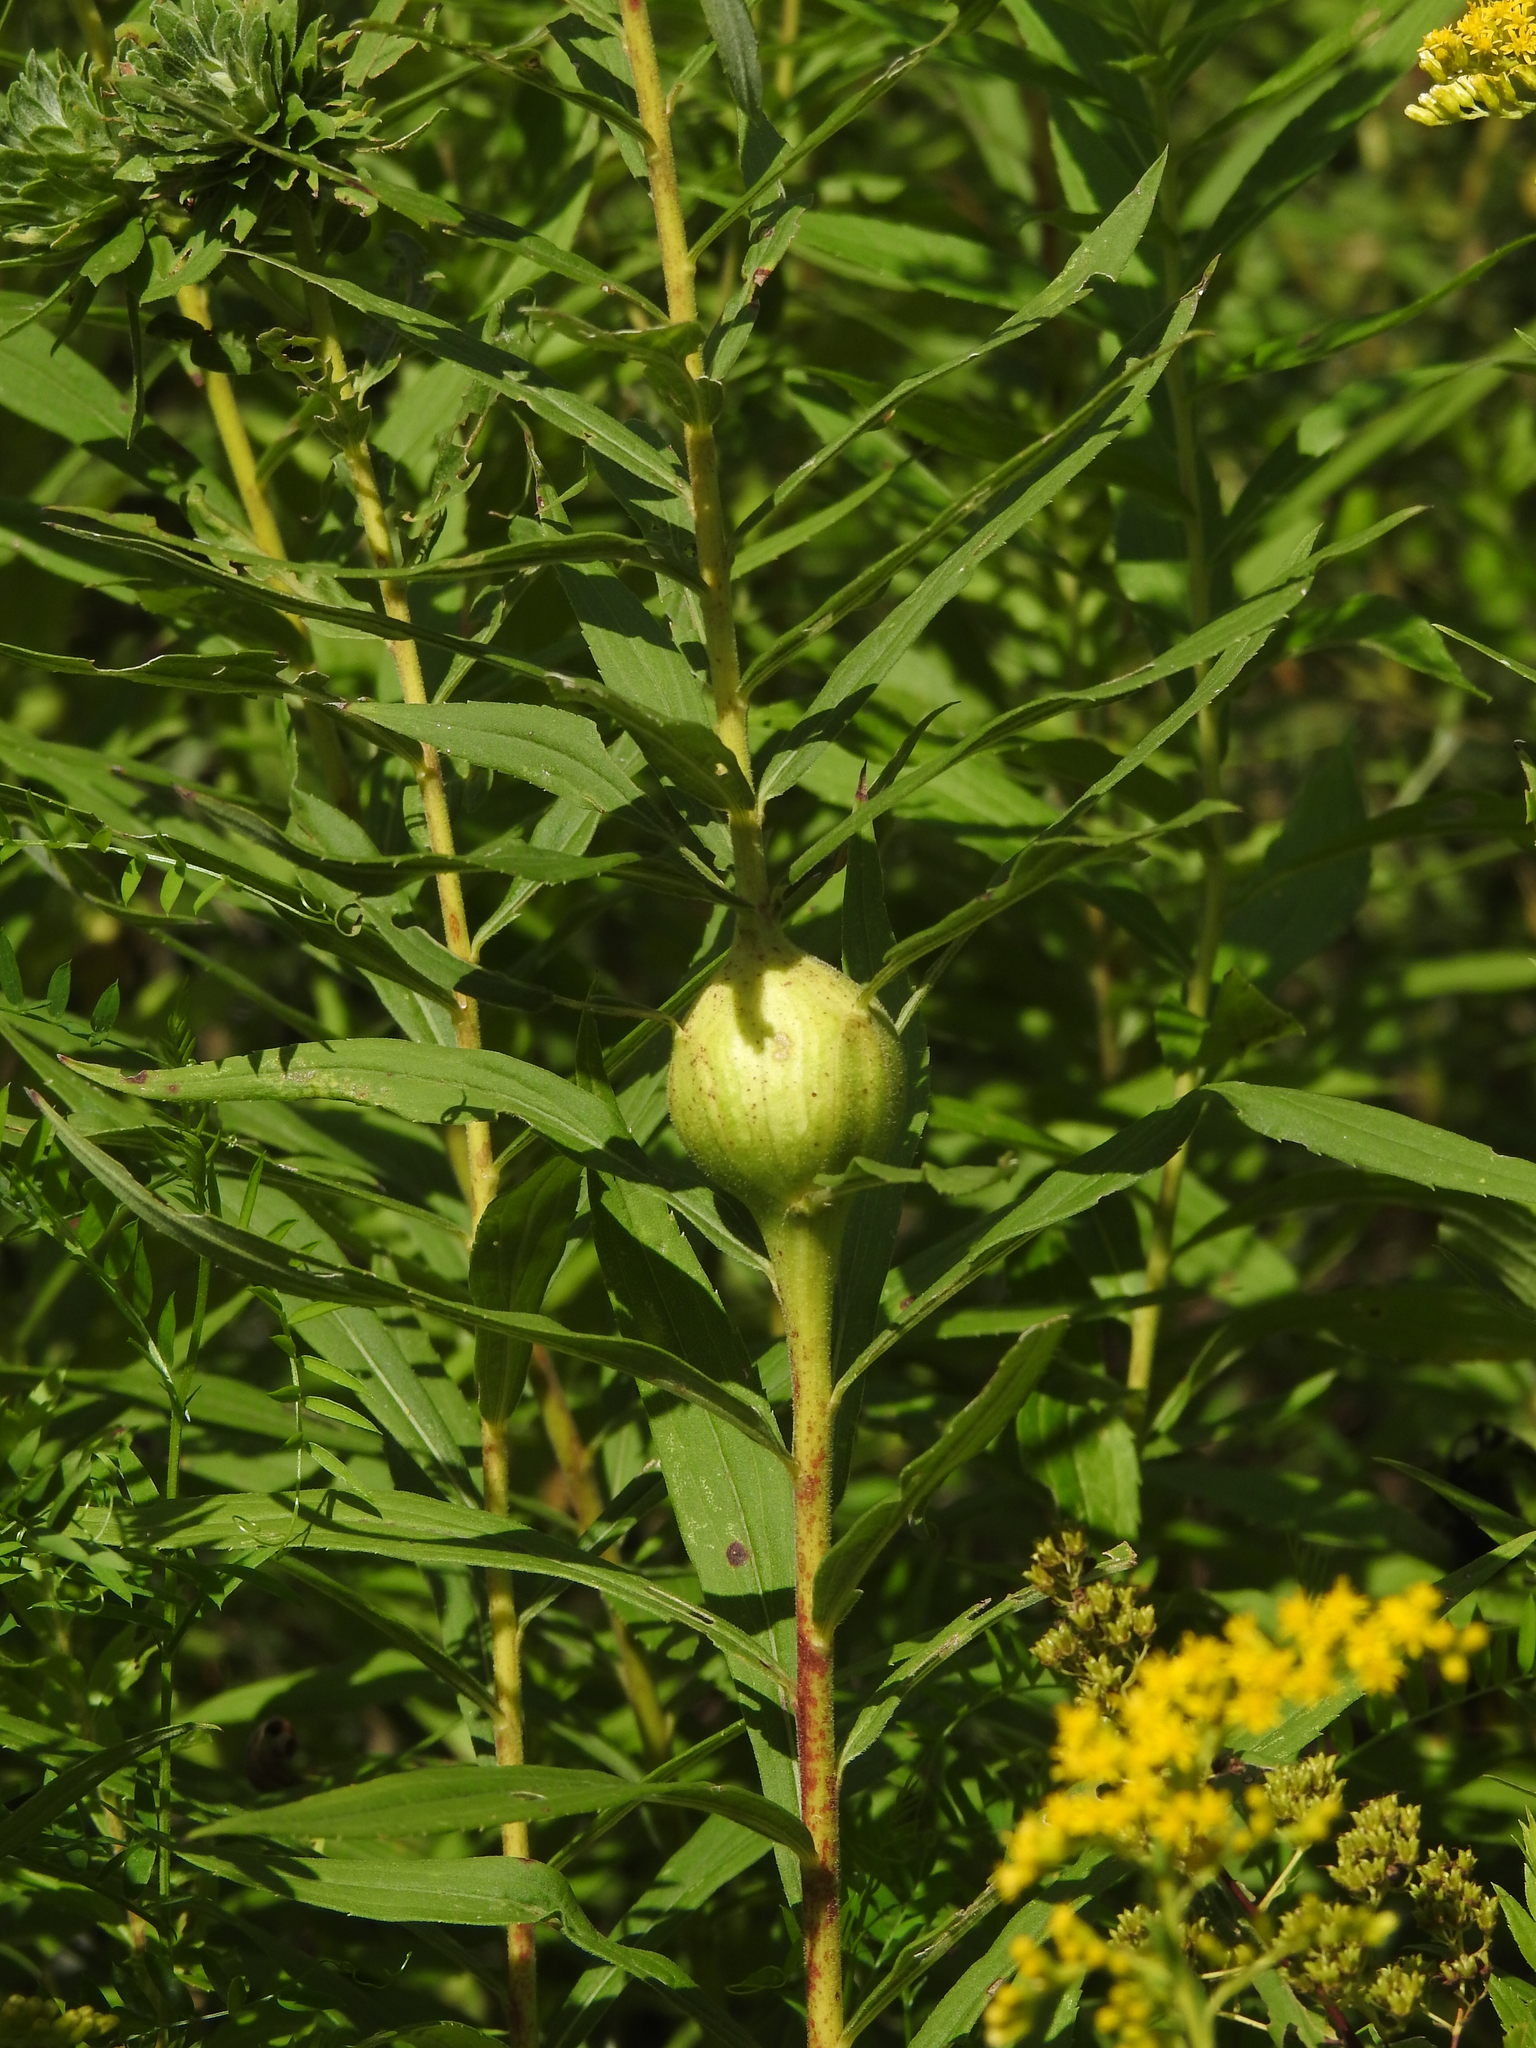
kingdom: Animalia
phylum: Arthropoda
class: Insecta
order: Diptera
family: Tephritidae
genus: Eurosta
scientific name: Eurosta solidaginis
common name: Goldenrod gall fly
